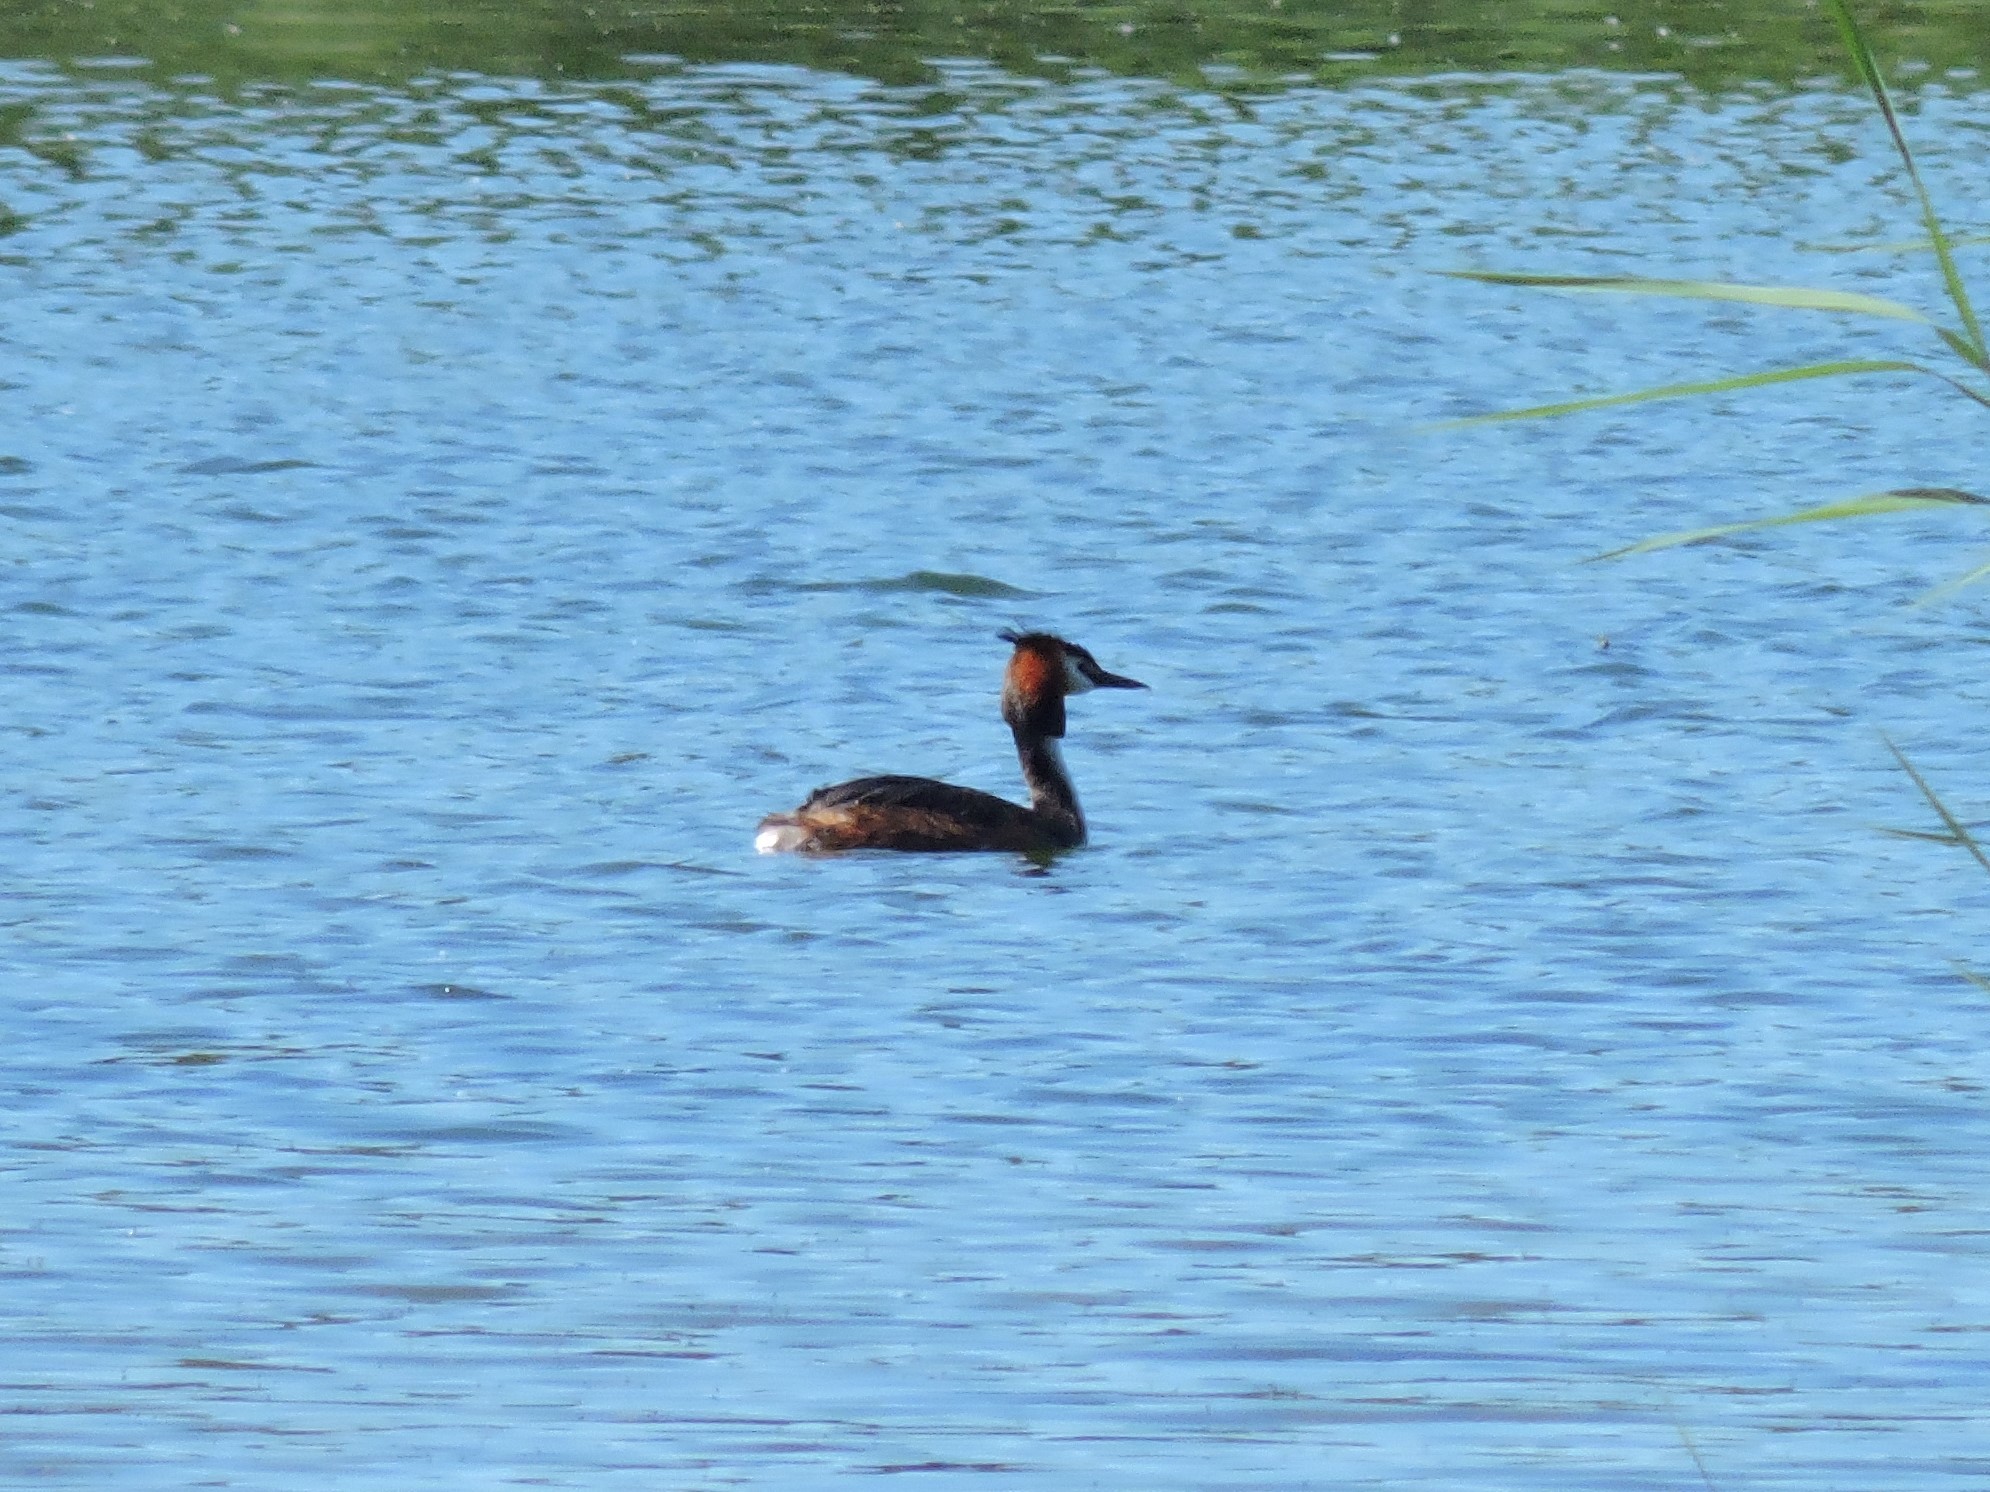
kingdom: Animalia
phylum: Chordata
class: Aves
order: Podicipediformes
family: Podicipedidae
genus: Podiceps
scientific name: Podiceps cristatus
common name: Great crested grebe
